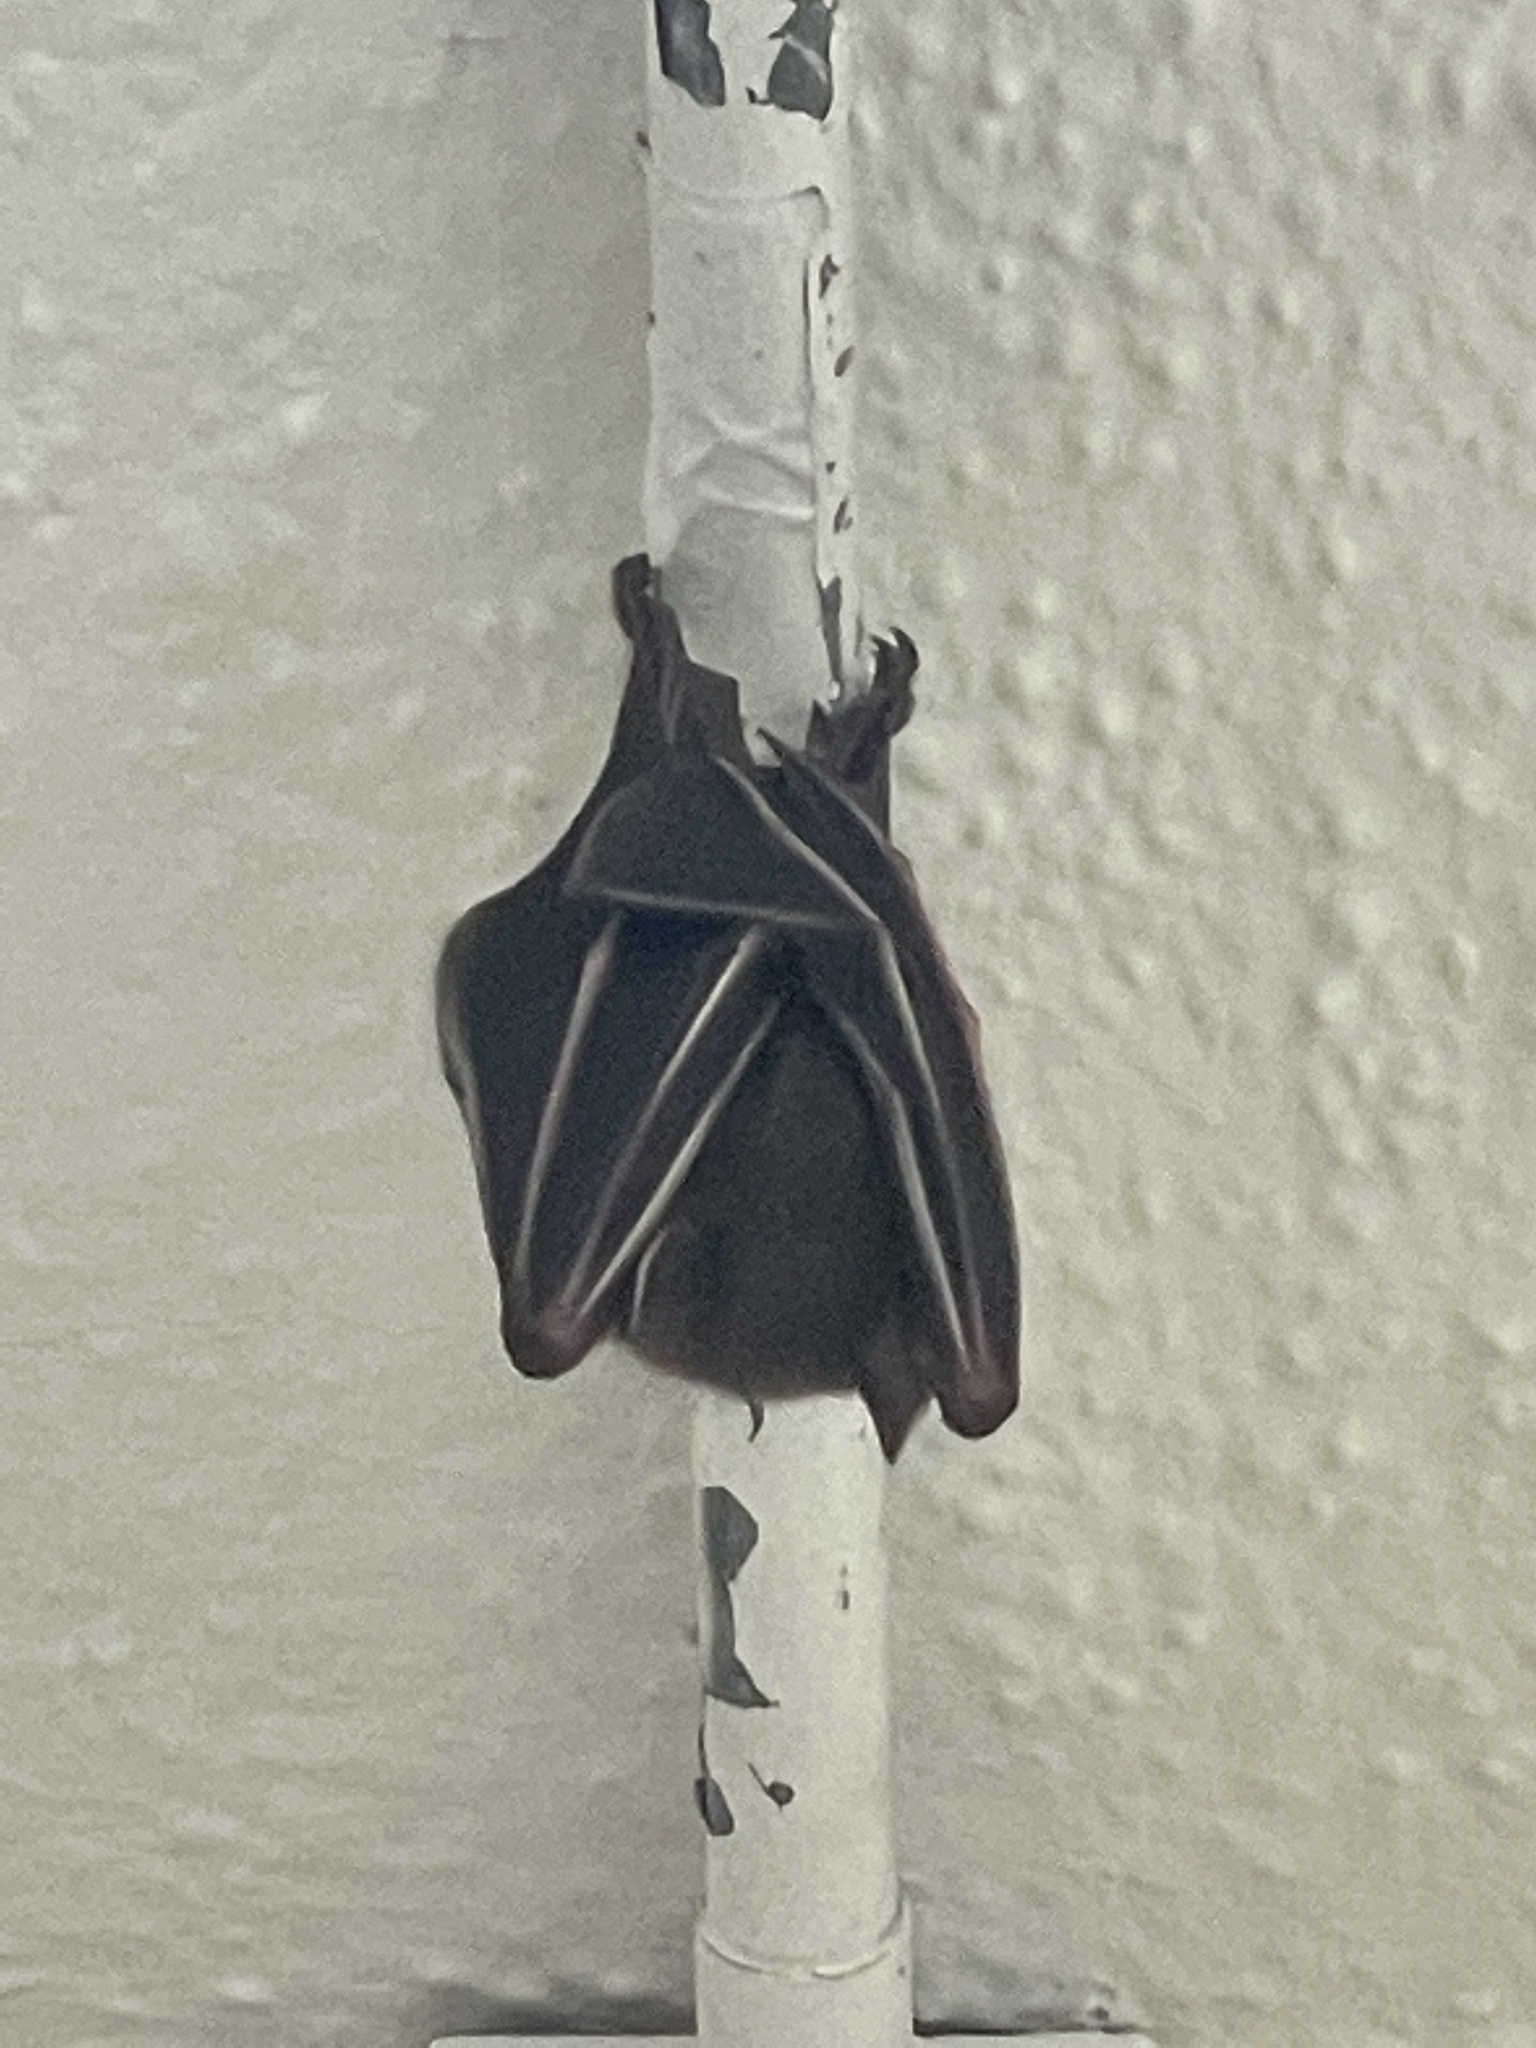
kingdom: Animalia
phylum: Chordata
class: Mammalia
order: Chiroptera
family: Pteropodidae
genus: Cynopterus
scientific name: Cynopterus sphinx
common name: Greater short-nosed fruit bat
